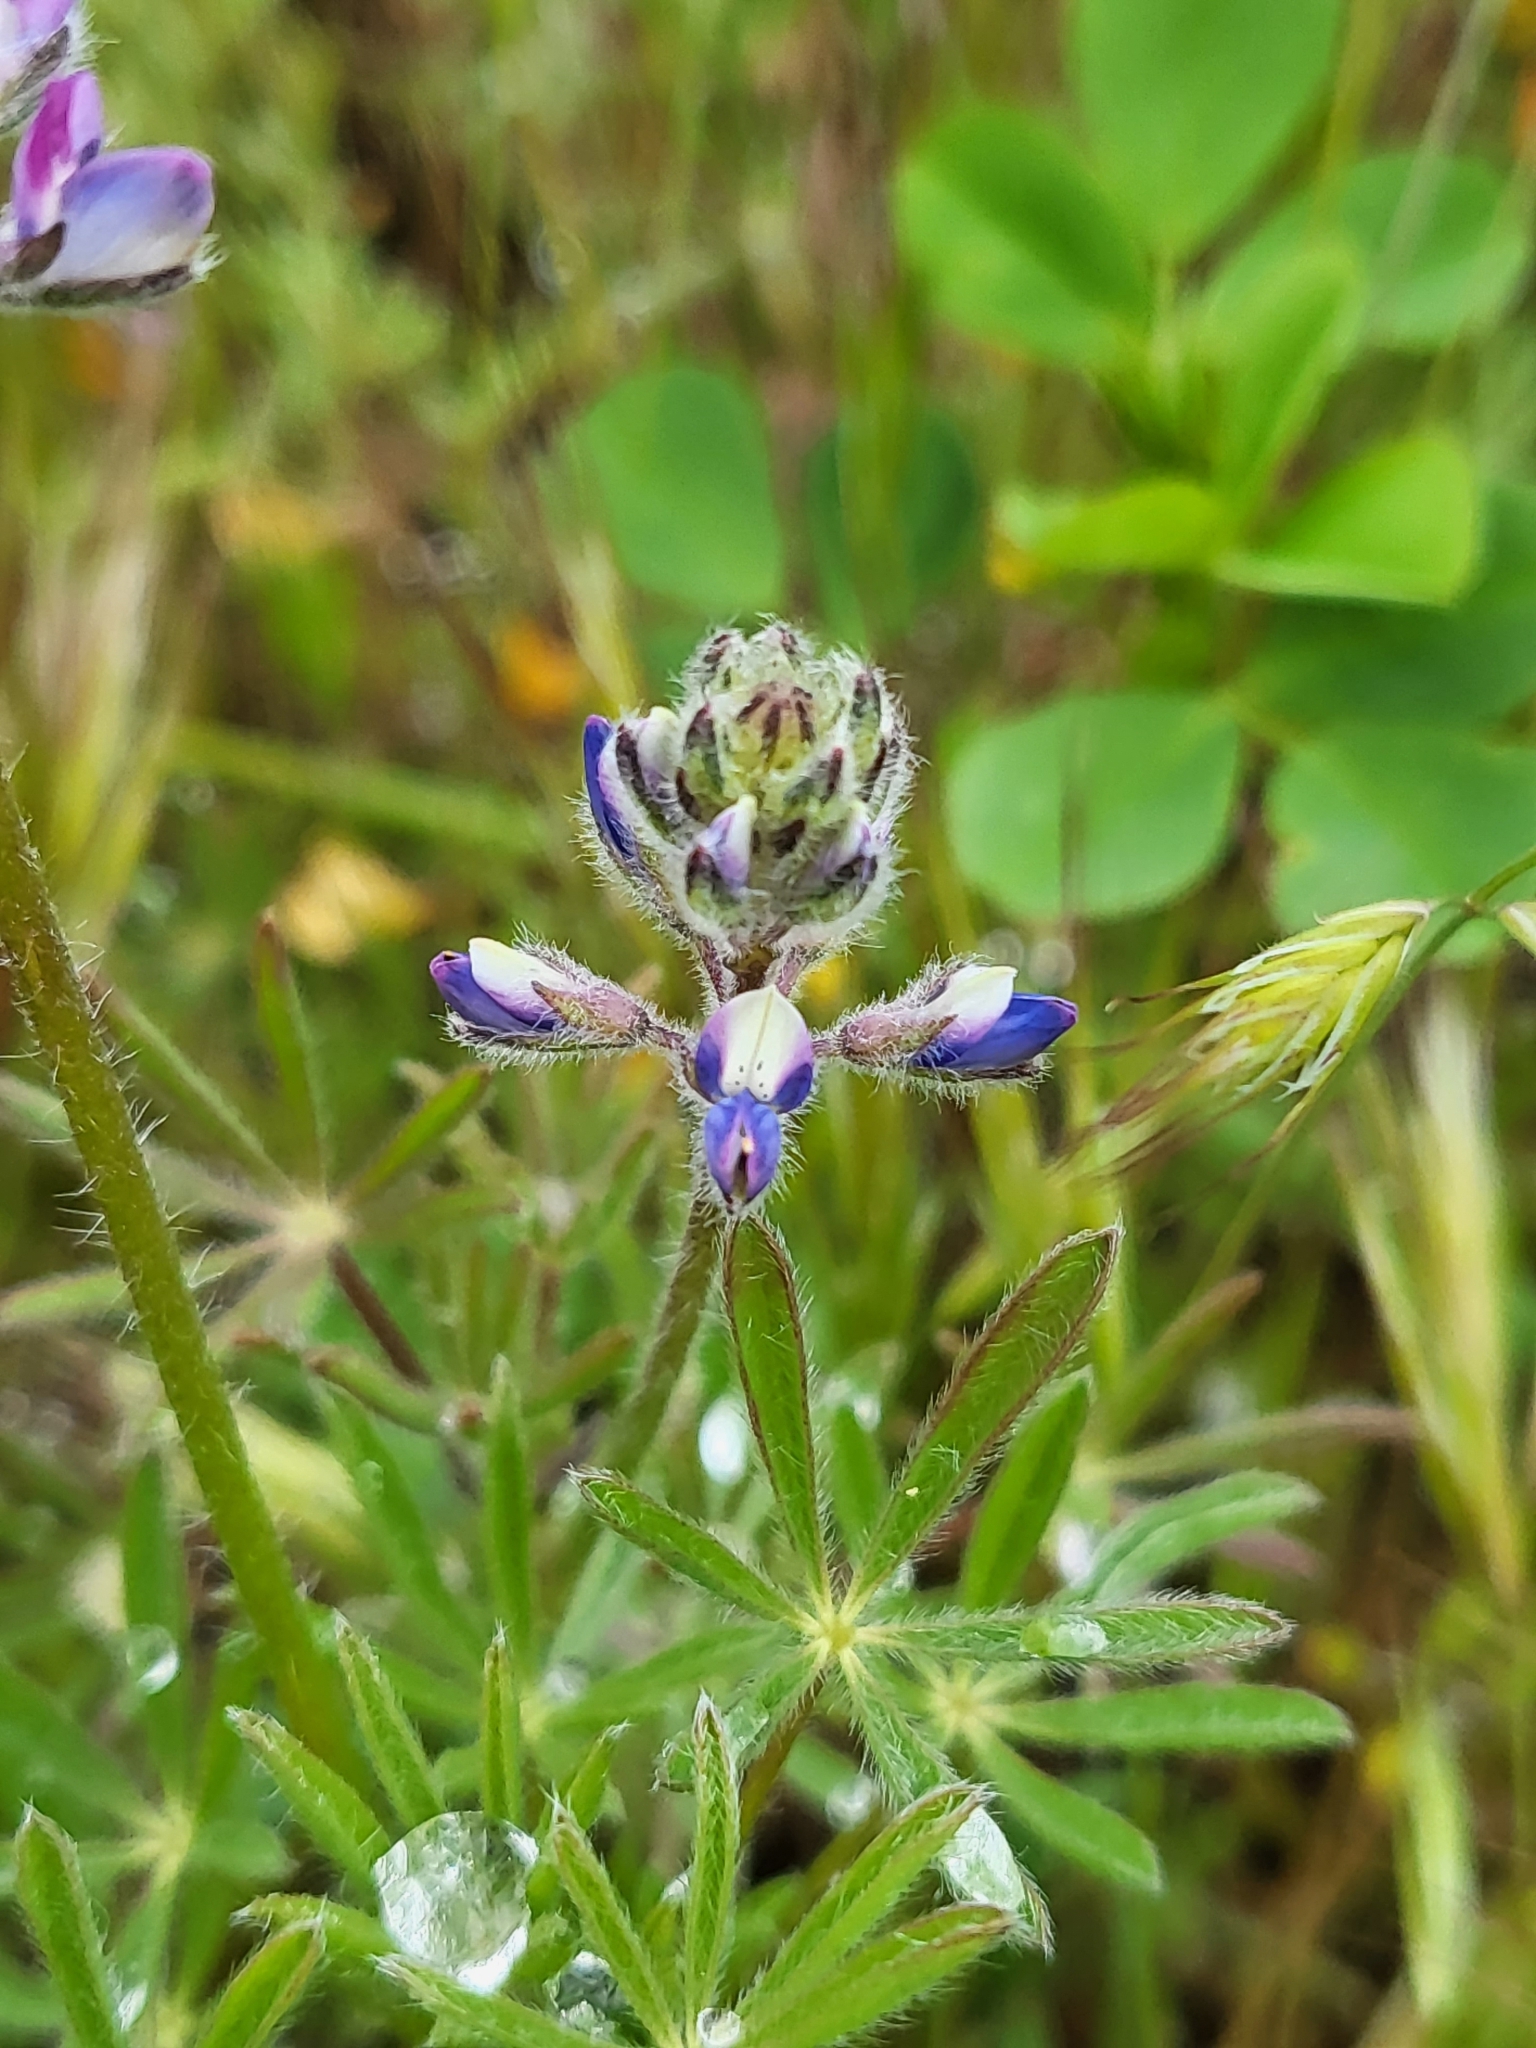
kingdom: Plantae
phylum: Tracheophyta
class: Magnoliopsida
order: Fabales
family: Fabaceae
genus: Lupinus
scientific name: Lupinus bicolor
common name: Miniature lupine
